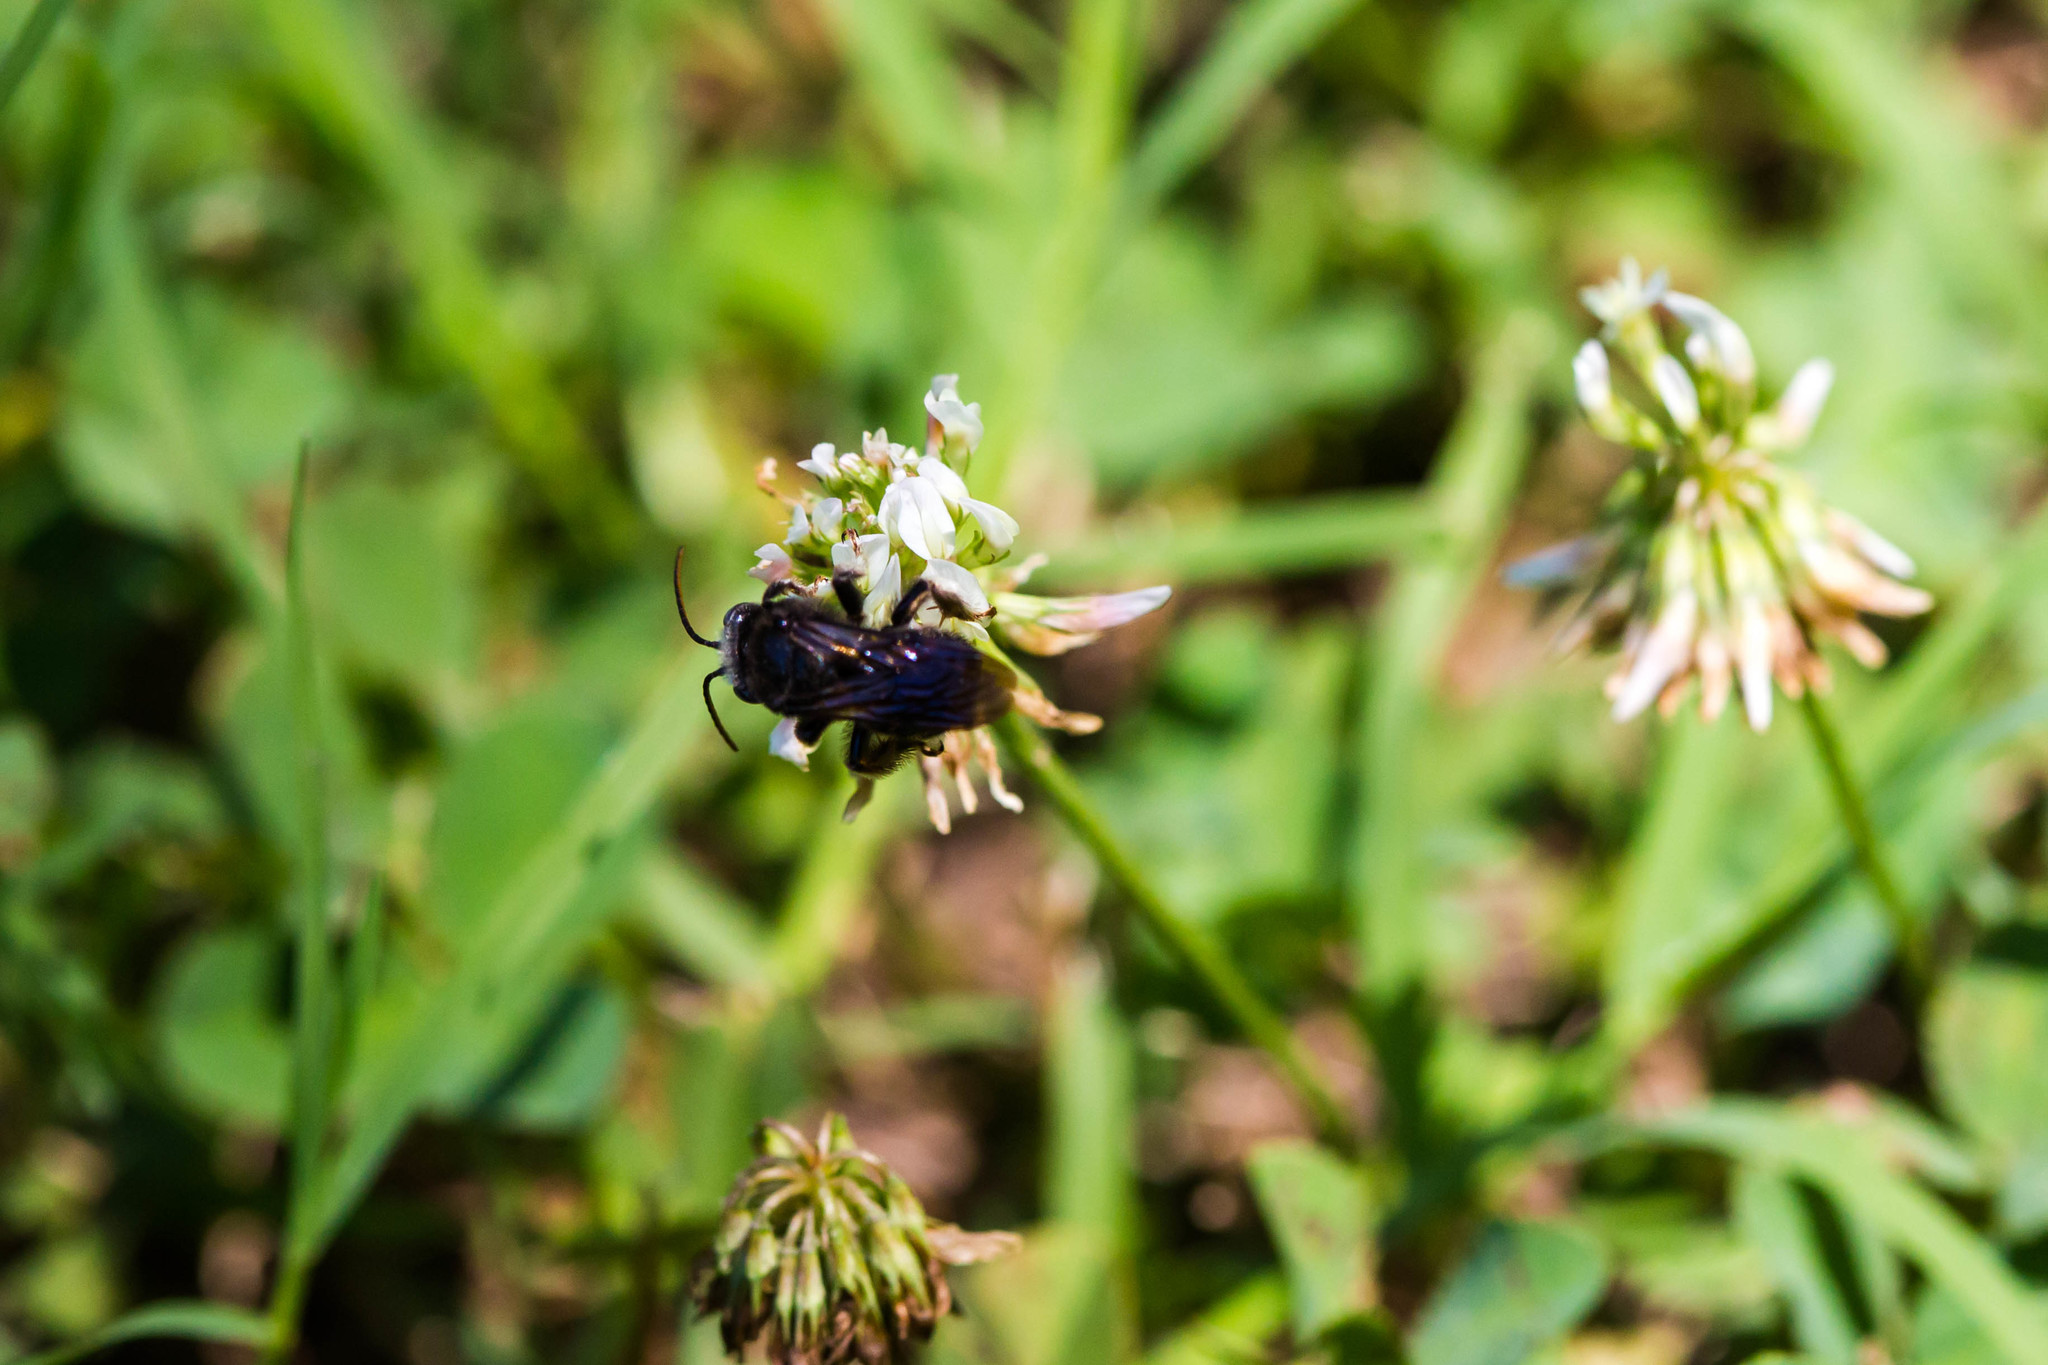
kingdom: Animalia
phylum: Arthropoda
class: Insecta
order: Hymenoptera
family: Apidae
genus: Melissodes
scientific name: Melissodes bimaculatus
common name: Two-spotted long-horned bee
